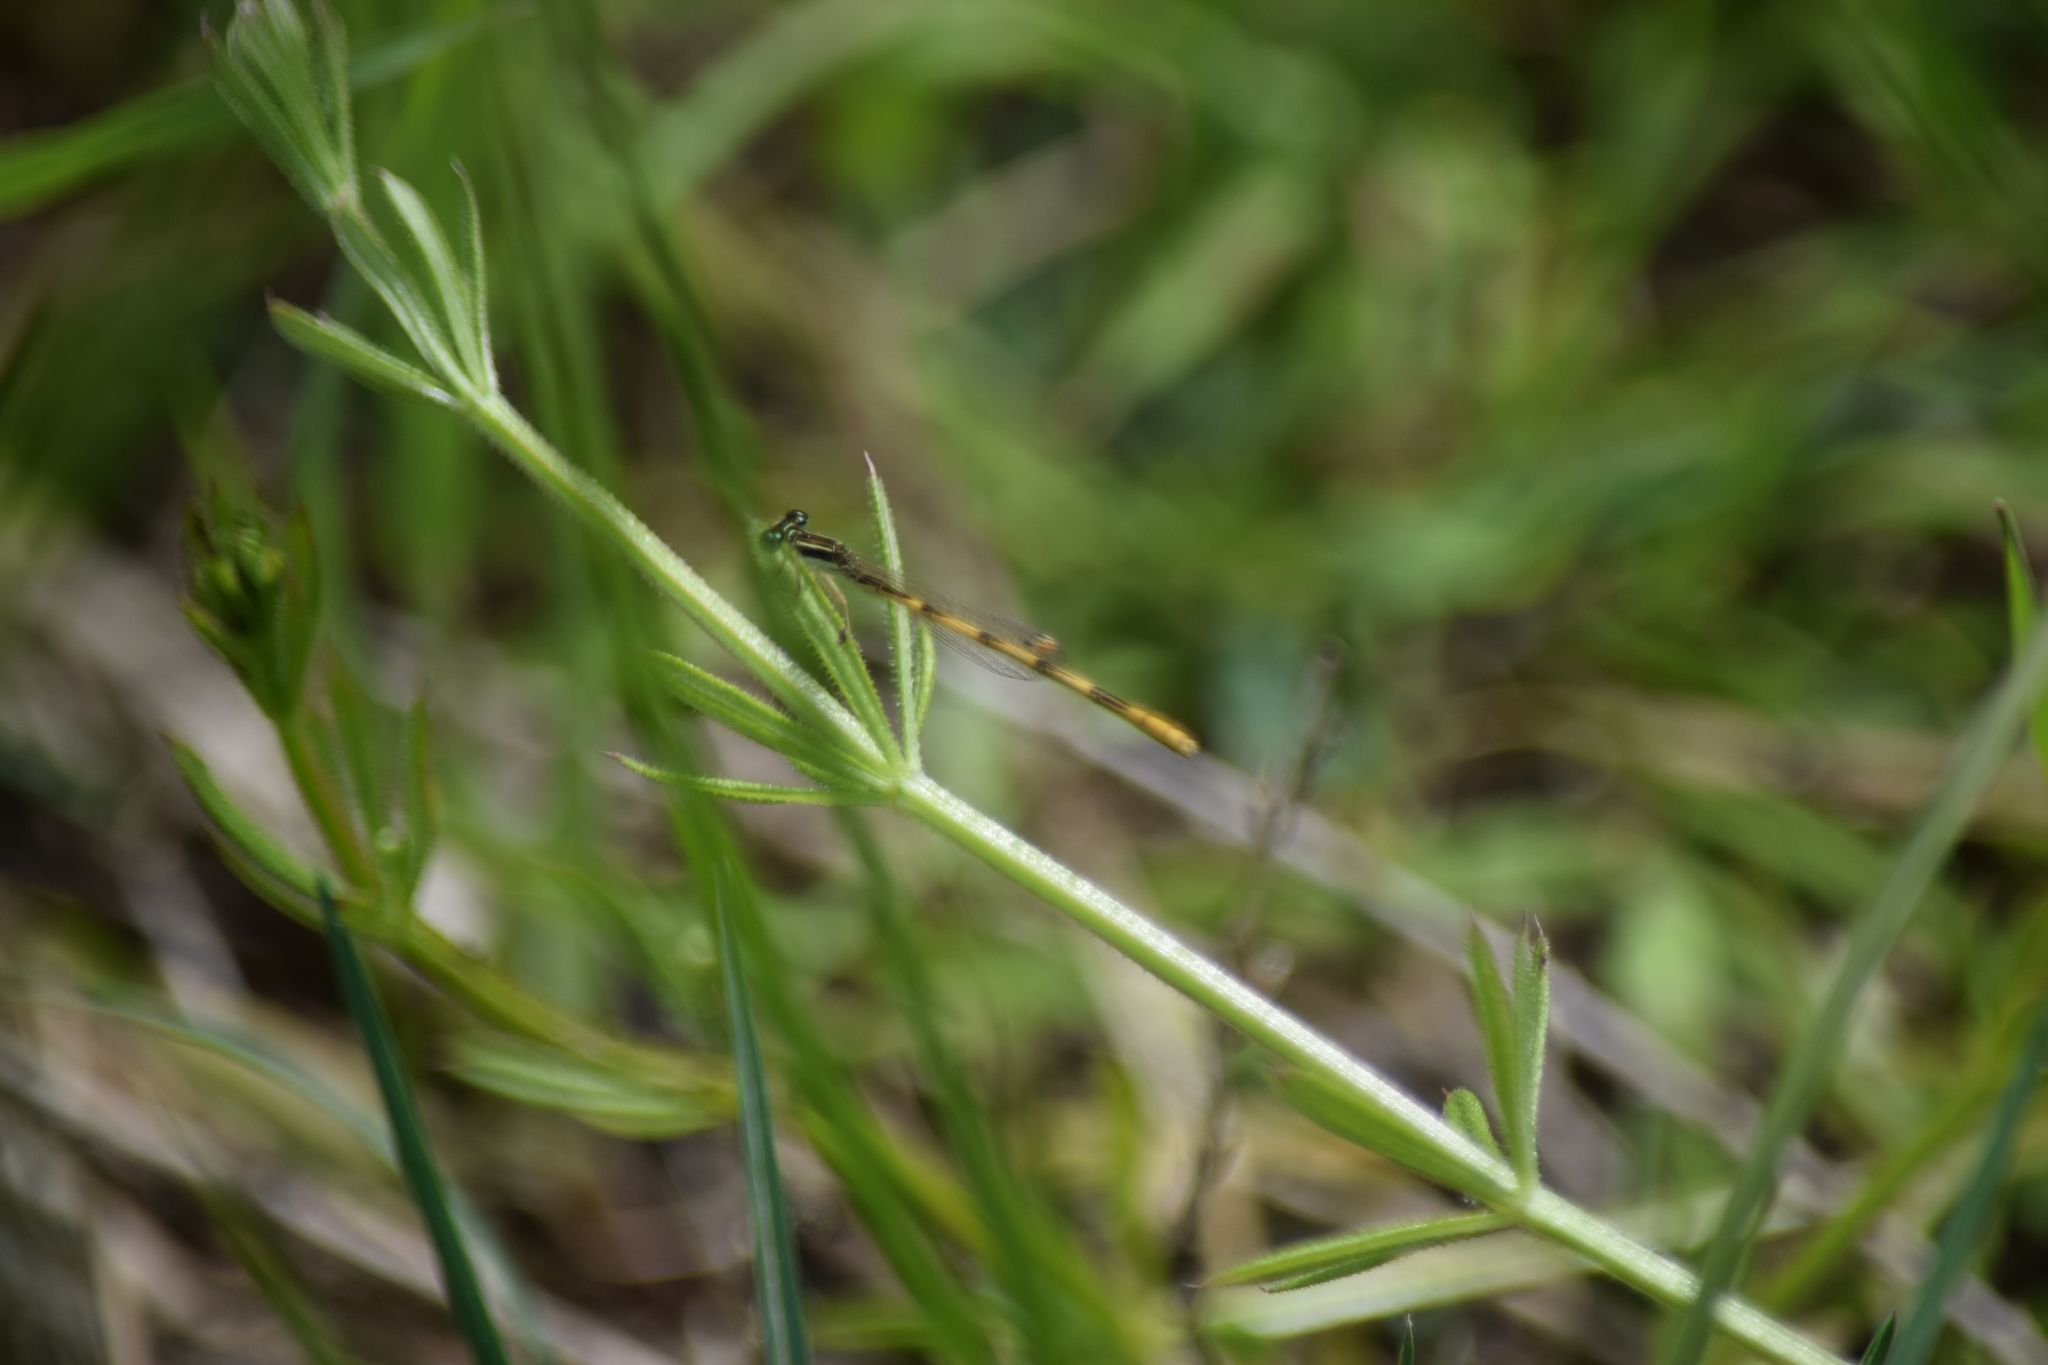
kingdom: Animalia
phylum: Arthropoda
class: Insecta
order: Odonata
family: Coenagrionidae
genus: Ischnura
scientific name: Ischnura hastata
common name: Citrine forktail
